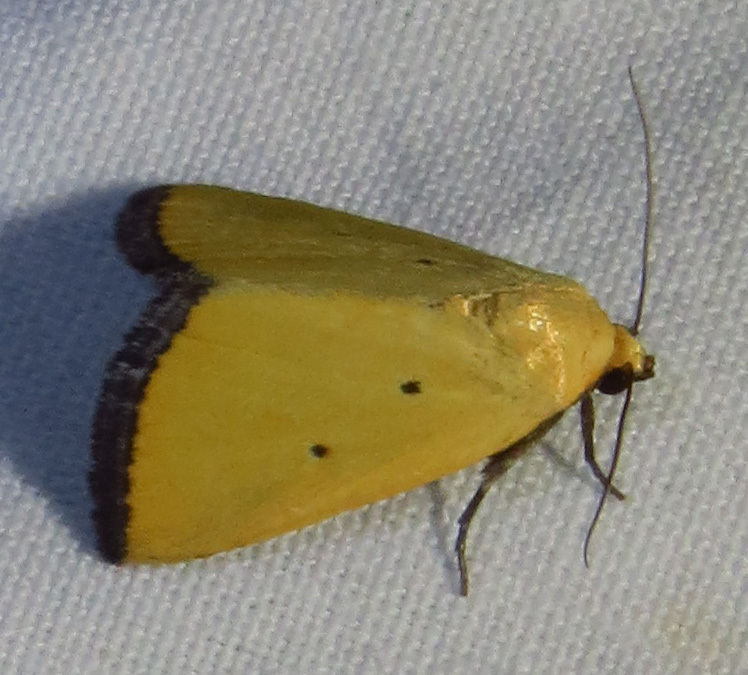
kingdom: Animalia
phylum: Arthropoda
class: Insecta
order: Lepidoptera
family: Noctuidae
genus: Marimatha
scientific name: Marimatha nigrofimbria
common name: Black-bordered lemon moth
